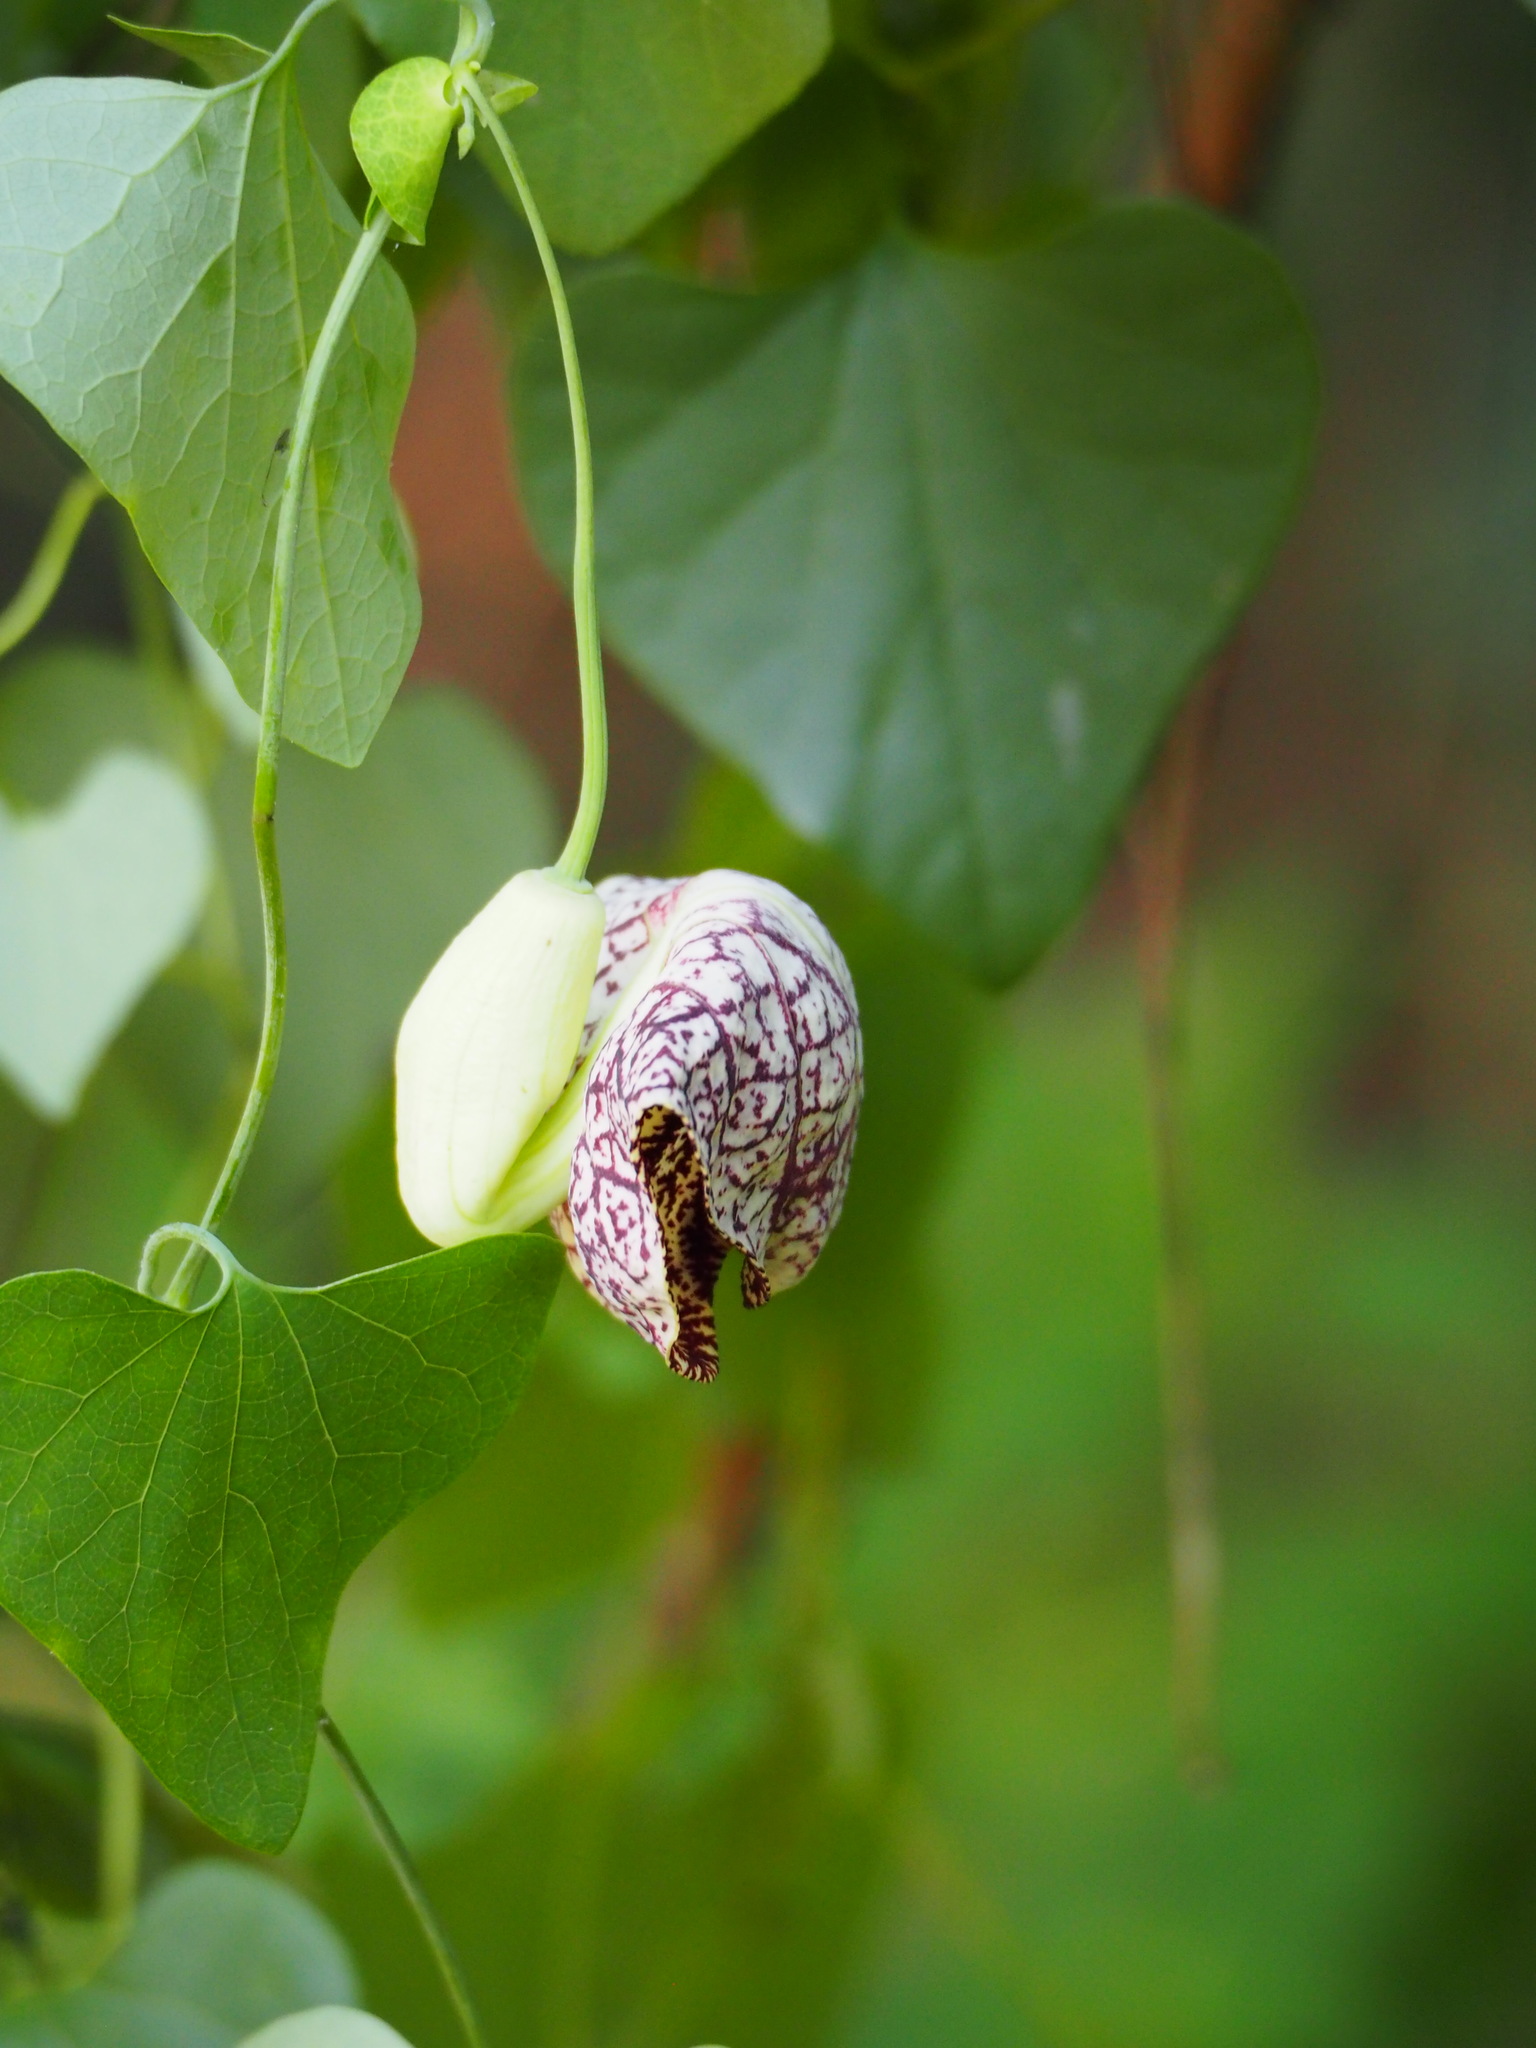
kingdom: Plantae
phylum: Tracheophyta
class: Magnoliopsida
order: Piperales
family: Aristolochiaceae
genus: Aristolochia
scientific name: Aristolochia littoralis
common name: Duck
